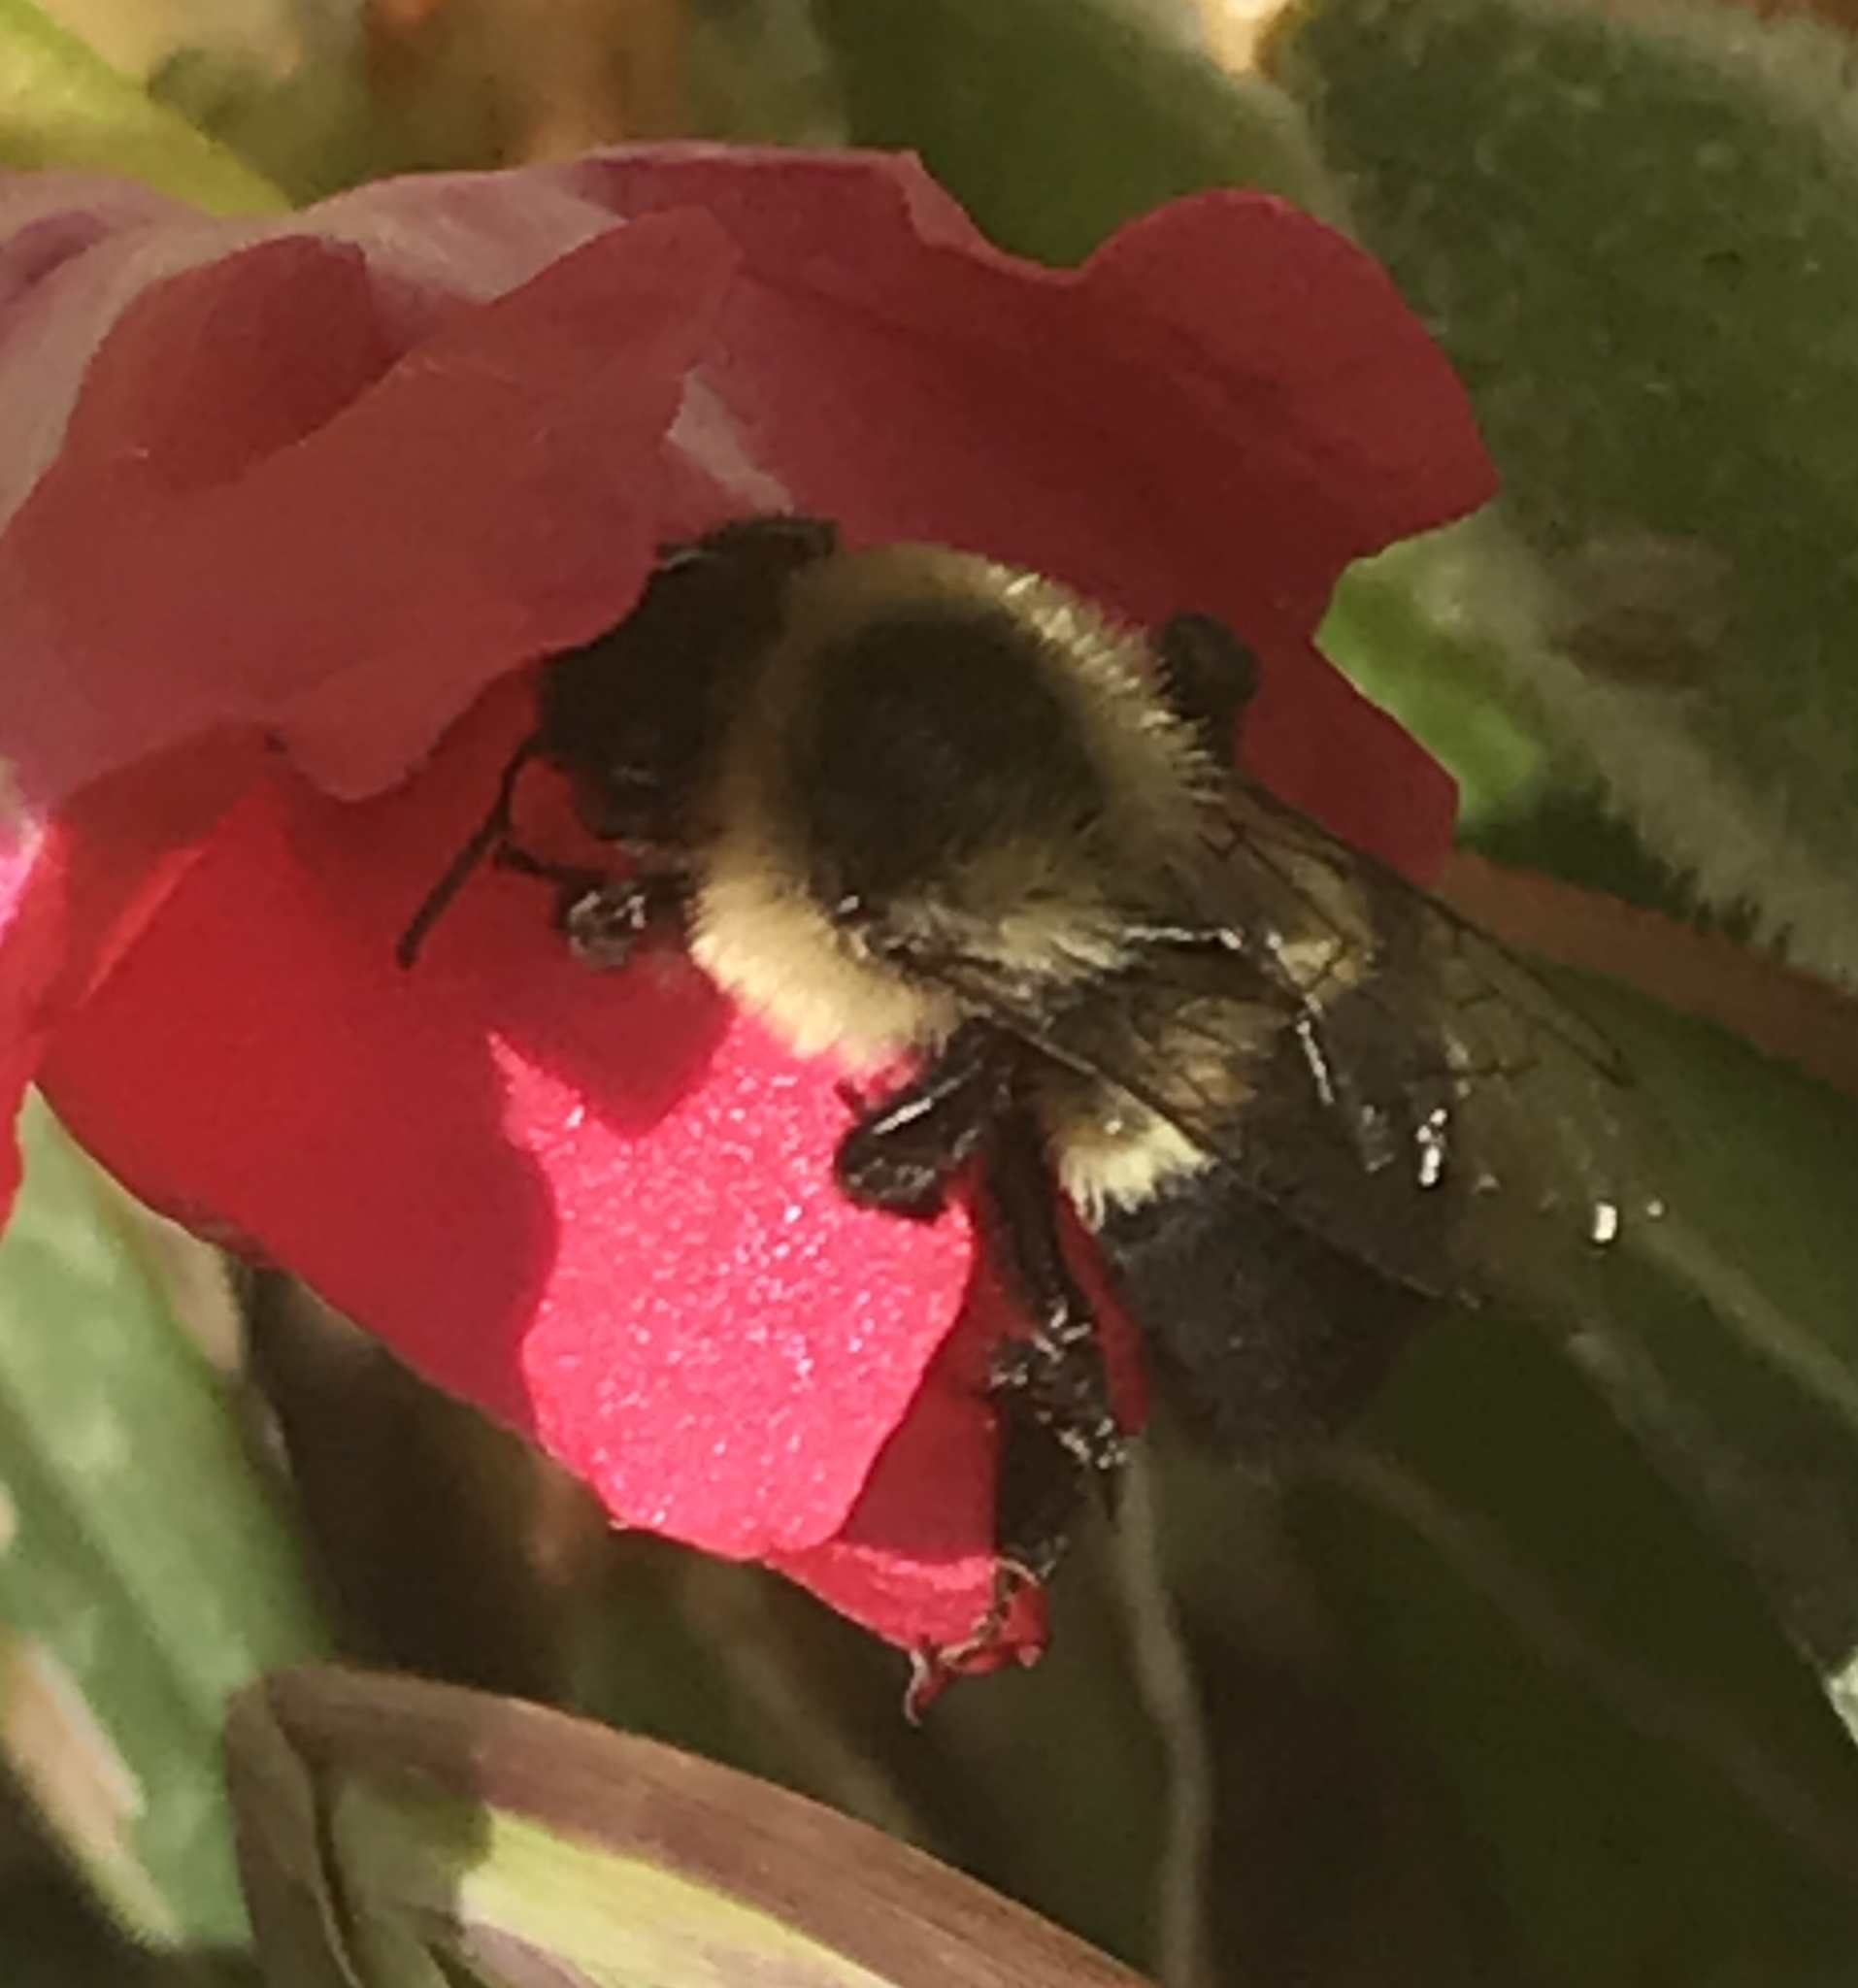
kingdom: Animalia
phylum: Arthropoda
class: Insecta
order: Hymenoptera
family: Apidae
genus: Bombus
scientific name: Bombus impatiens
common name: Common eastern bumble bee
